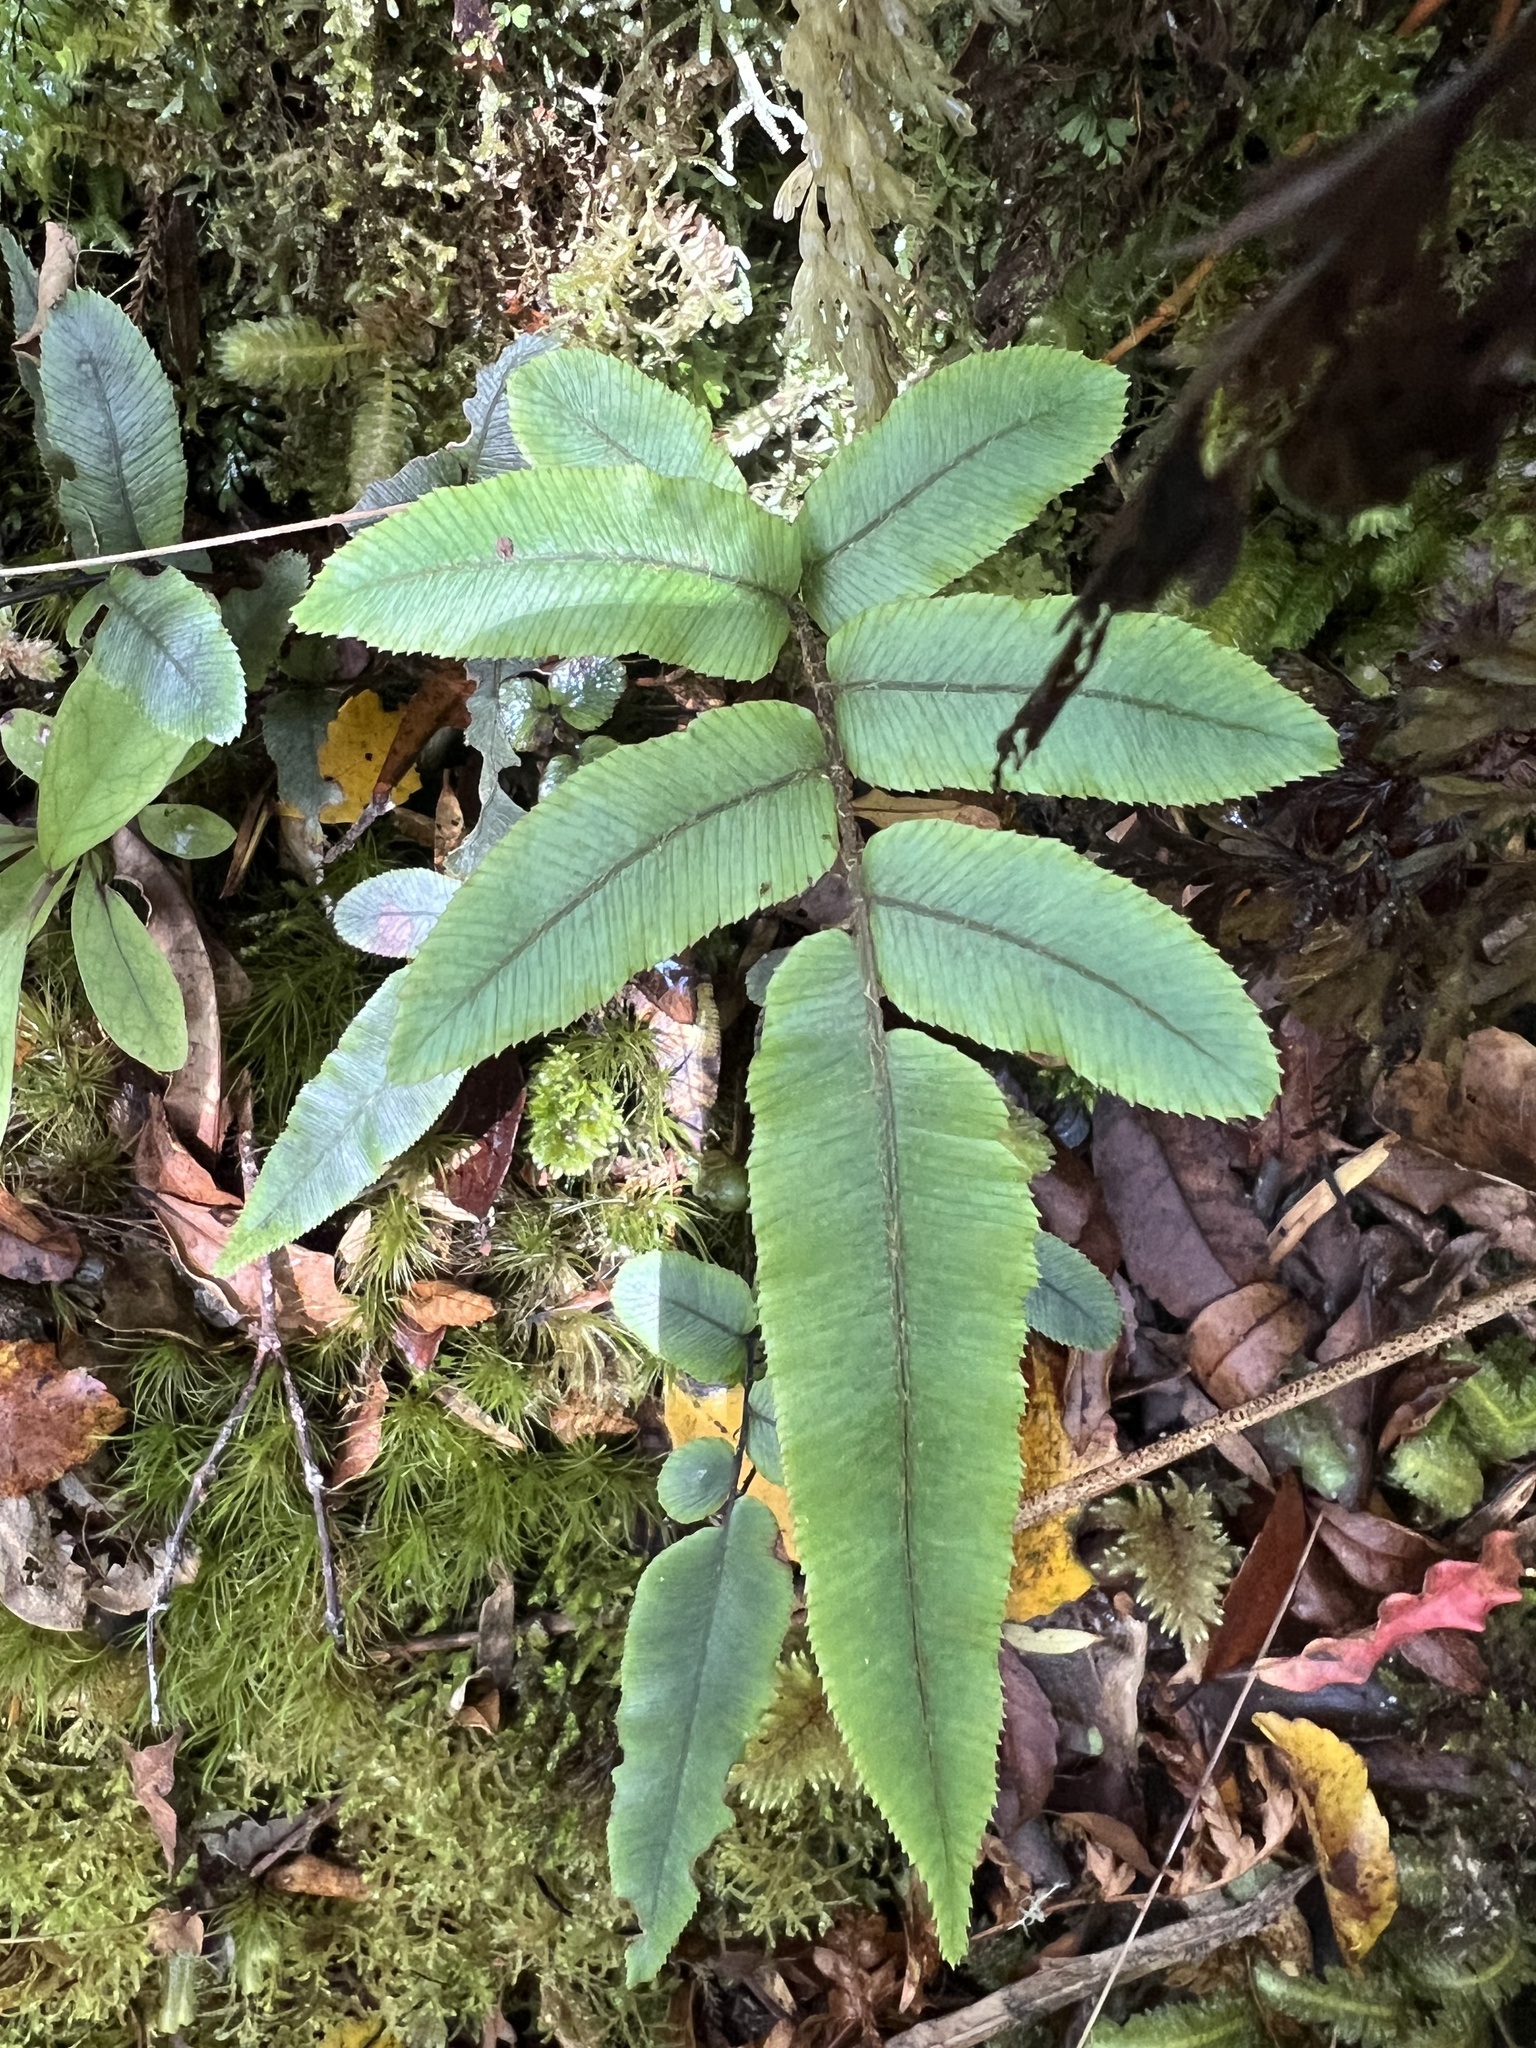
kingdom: Plantae
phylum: Tracheophyta
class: Polypodiopsida
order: Polypodiales
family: Blechnaceae
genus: Parablechnum
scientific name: Parablechnum procerum
